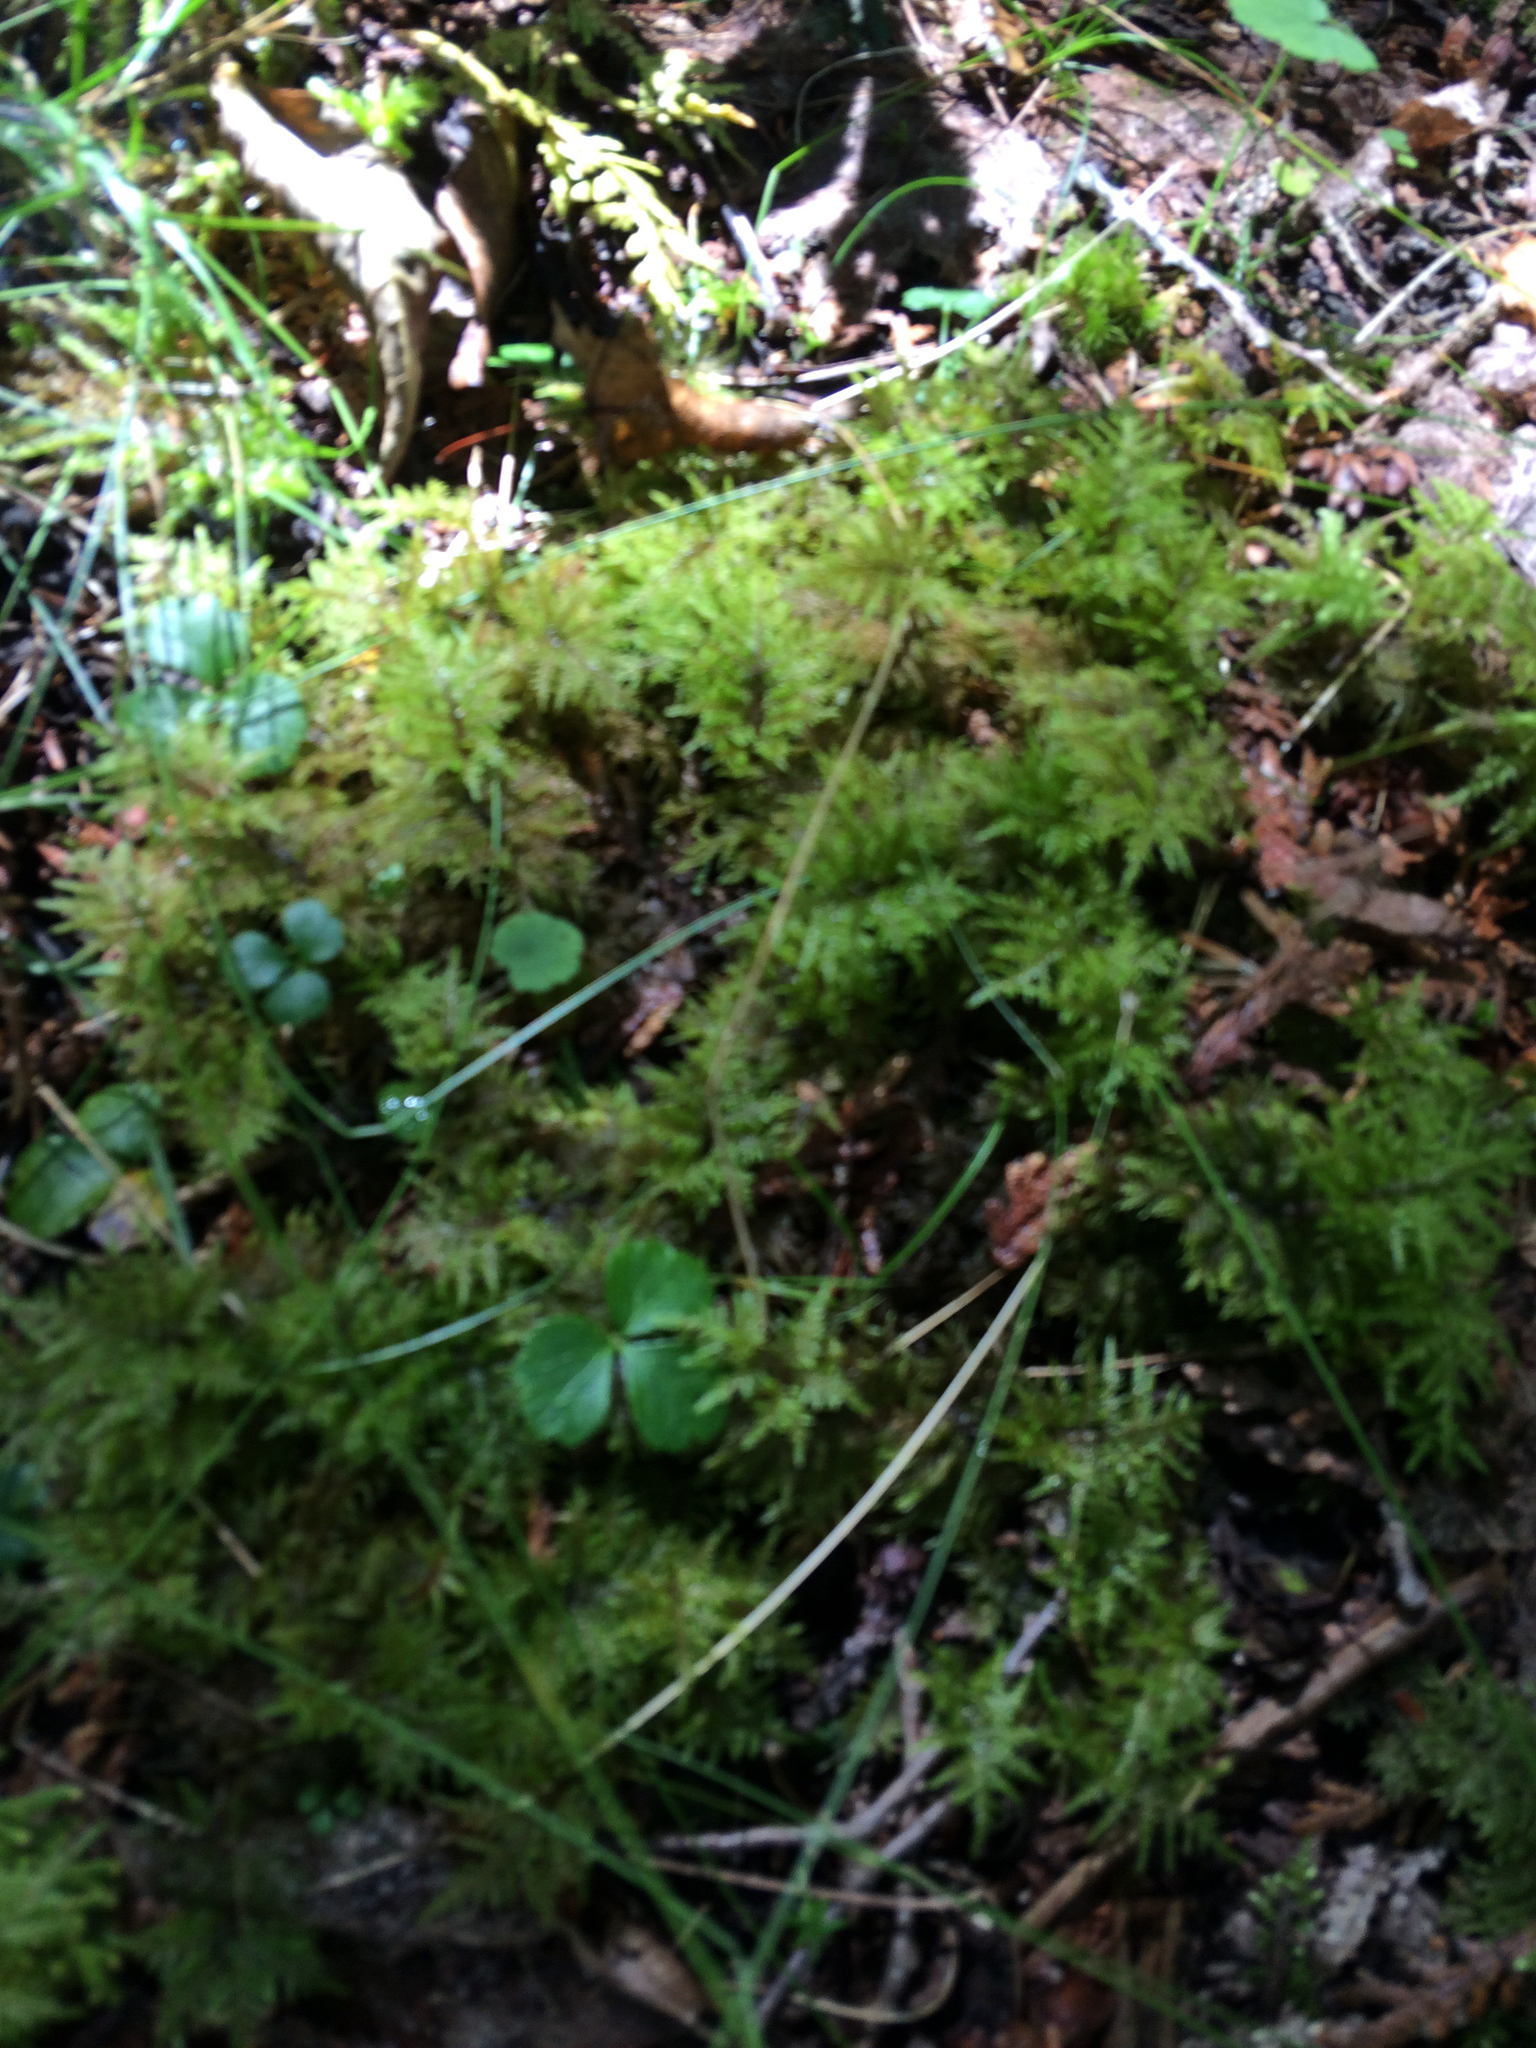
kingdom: Plantae
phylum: Bryophyta
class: Bryopsida
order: Hypnales
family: Hylocomiaceae
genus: Hylocomium
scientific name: Hylocomium splendens
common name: Stairstep moss
